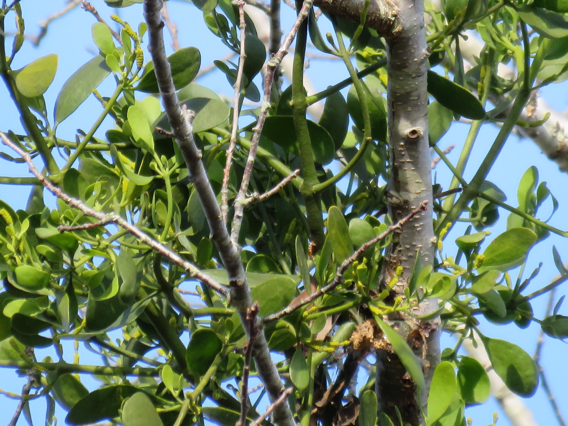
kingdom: Plantae
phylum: Tracheophyta
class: Magnoliopsida
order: Santalales
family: Viscaceae
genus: Phoradendron
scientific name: Phoradendron leucarpum
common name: Pacific mistletoe
